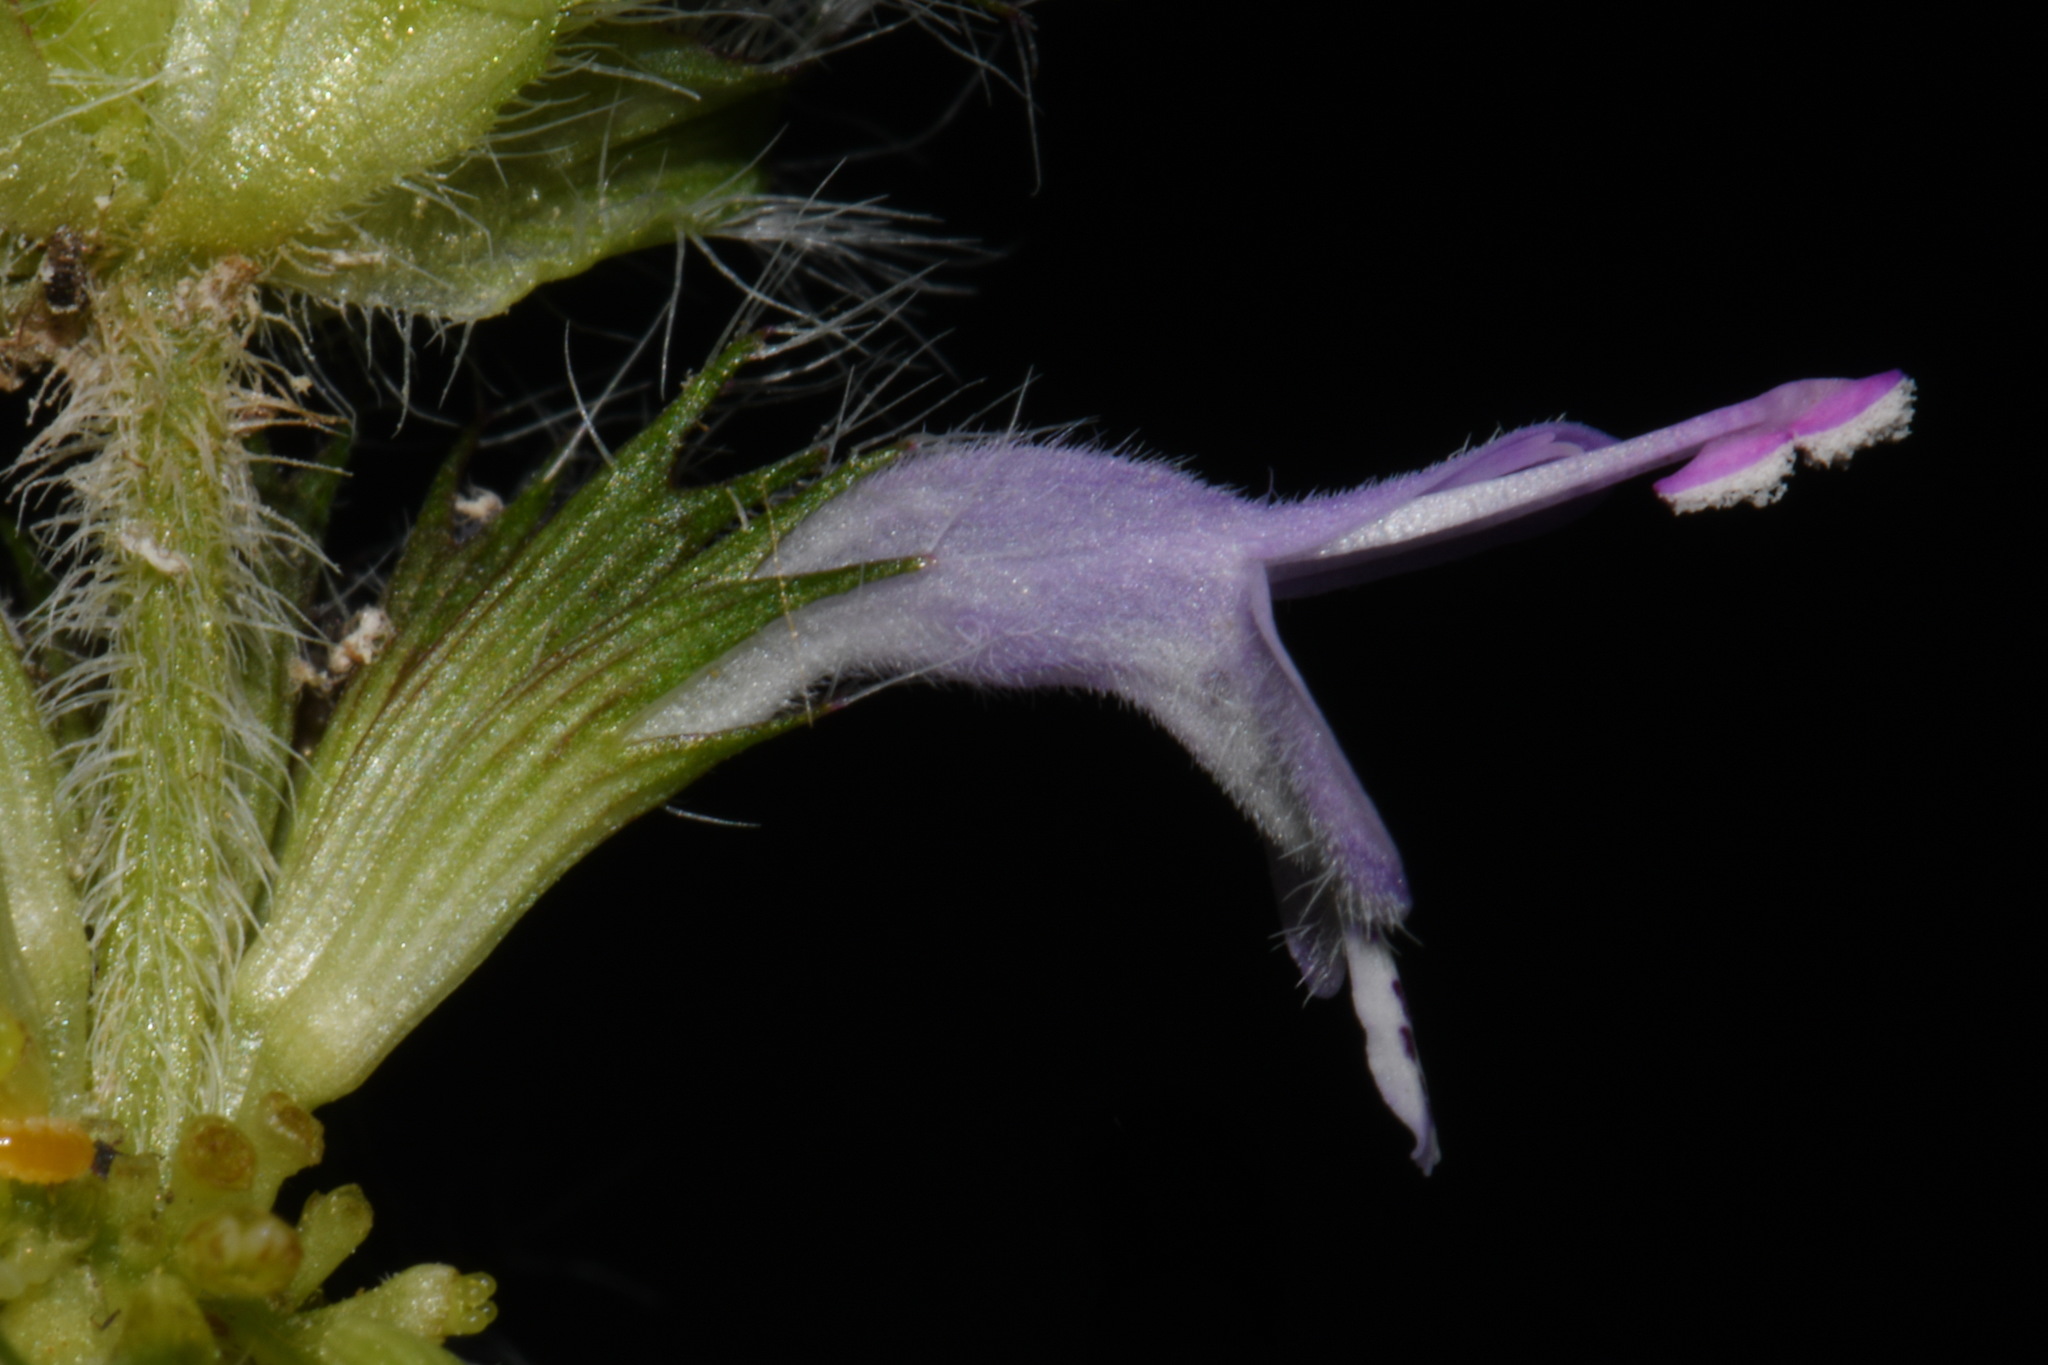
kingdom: Plantae
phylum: Tracheophyta
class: Magnoliopsida
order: Lamiales
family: Lamiaceae
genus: Blephilia
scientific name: Blephilia woffordii
